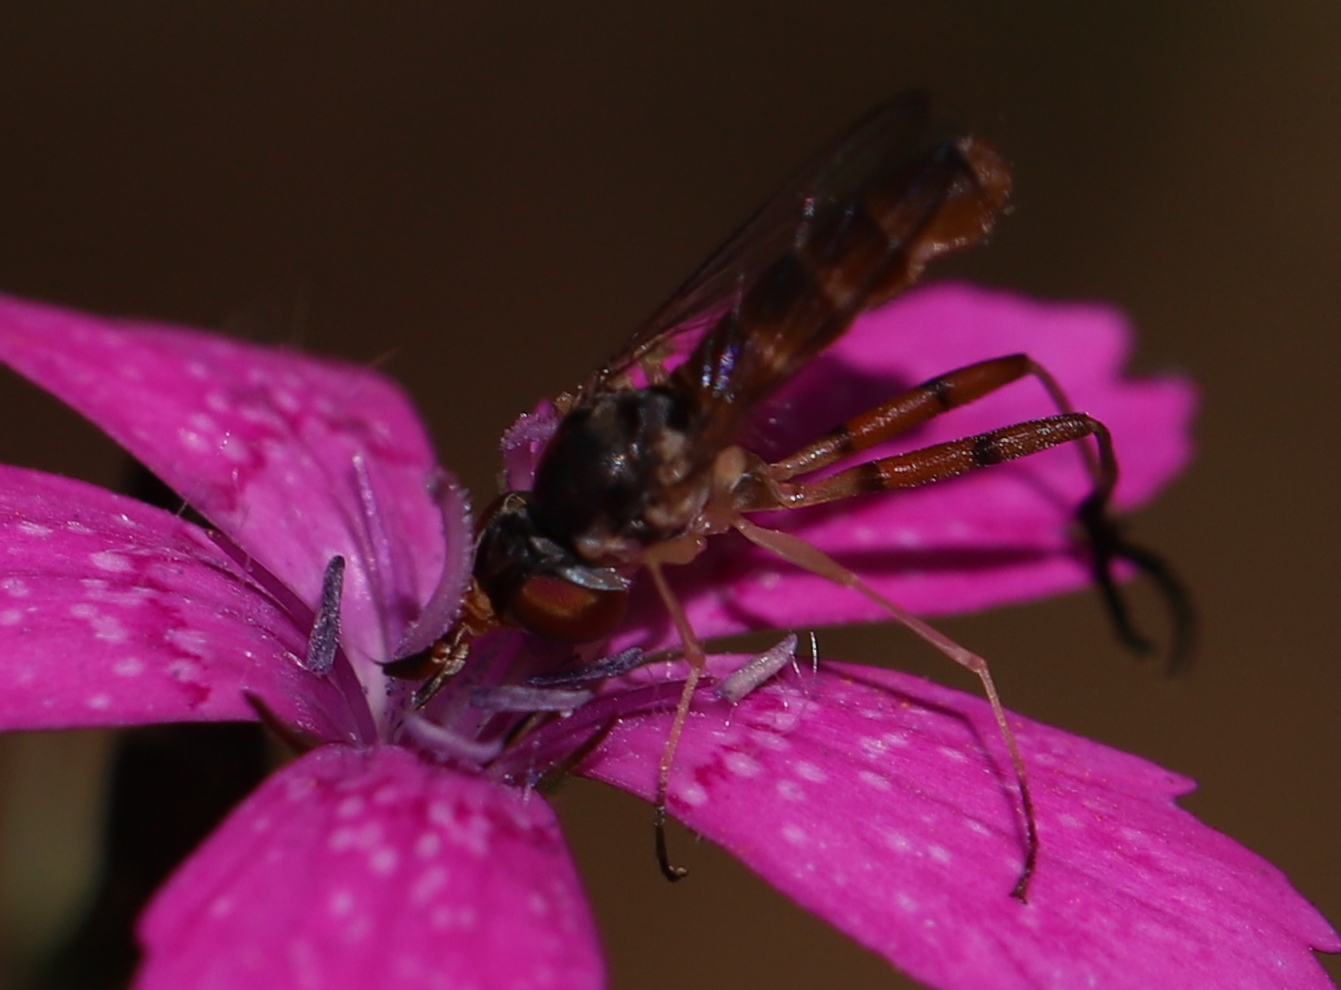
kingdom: Plantae
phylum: Tracheophyta
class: Magnoliopsida
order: Caryophyllales
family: Caryophyllaceae
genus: Dianthus
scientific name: Dianthus armeria
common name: Deptford pink
